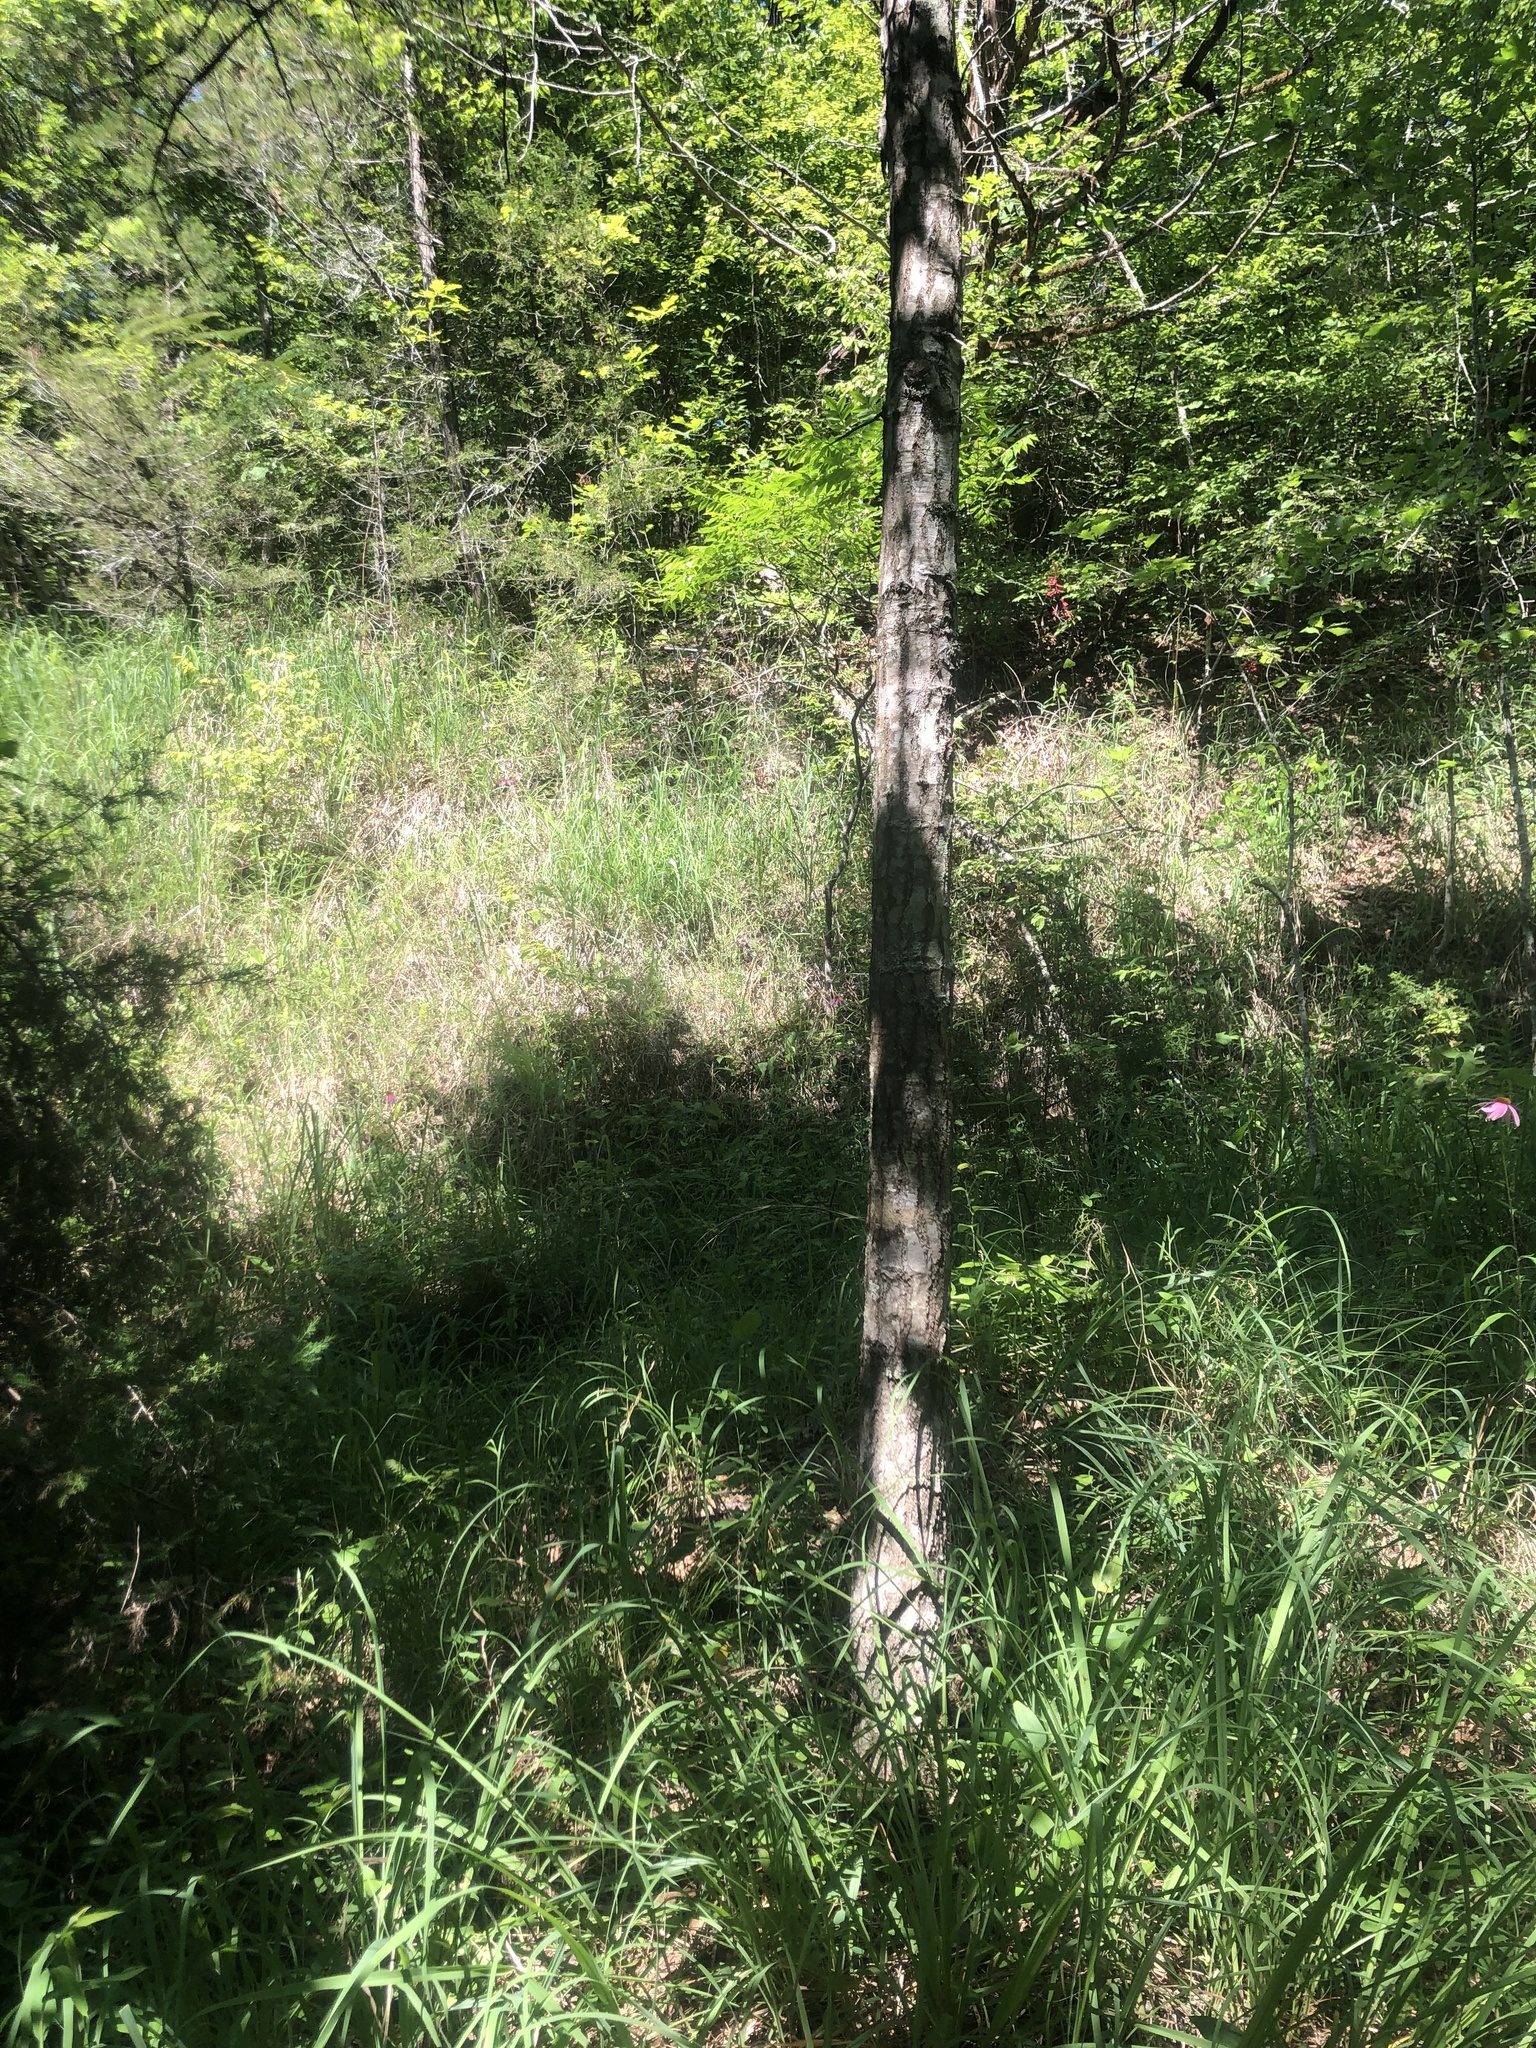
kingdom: Plantae
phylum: Tracheophyta
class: Magnoliopsida
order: Asterales
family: Asteraceae
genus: Echinacea
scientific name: Echinacea purpurea
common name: Broad-leaved purple coneflower
